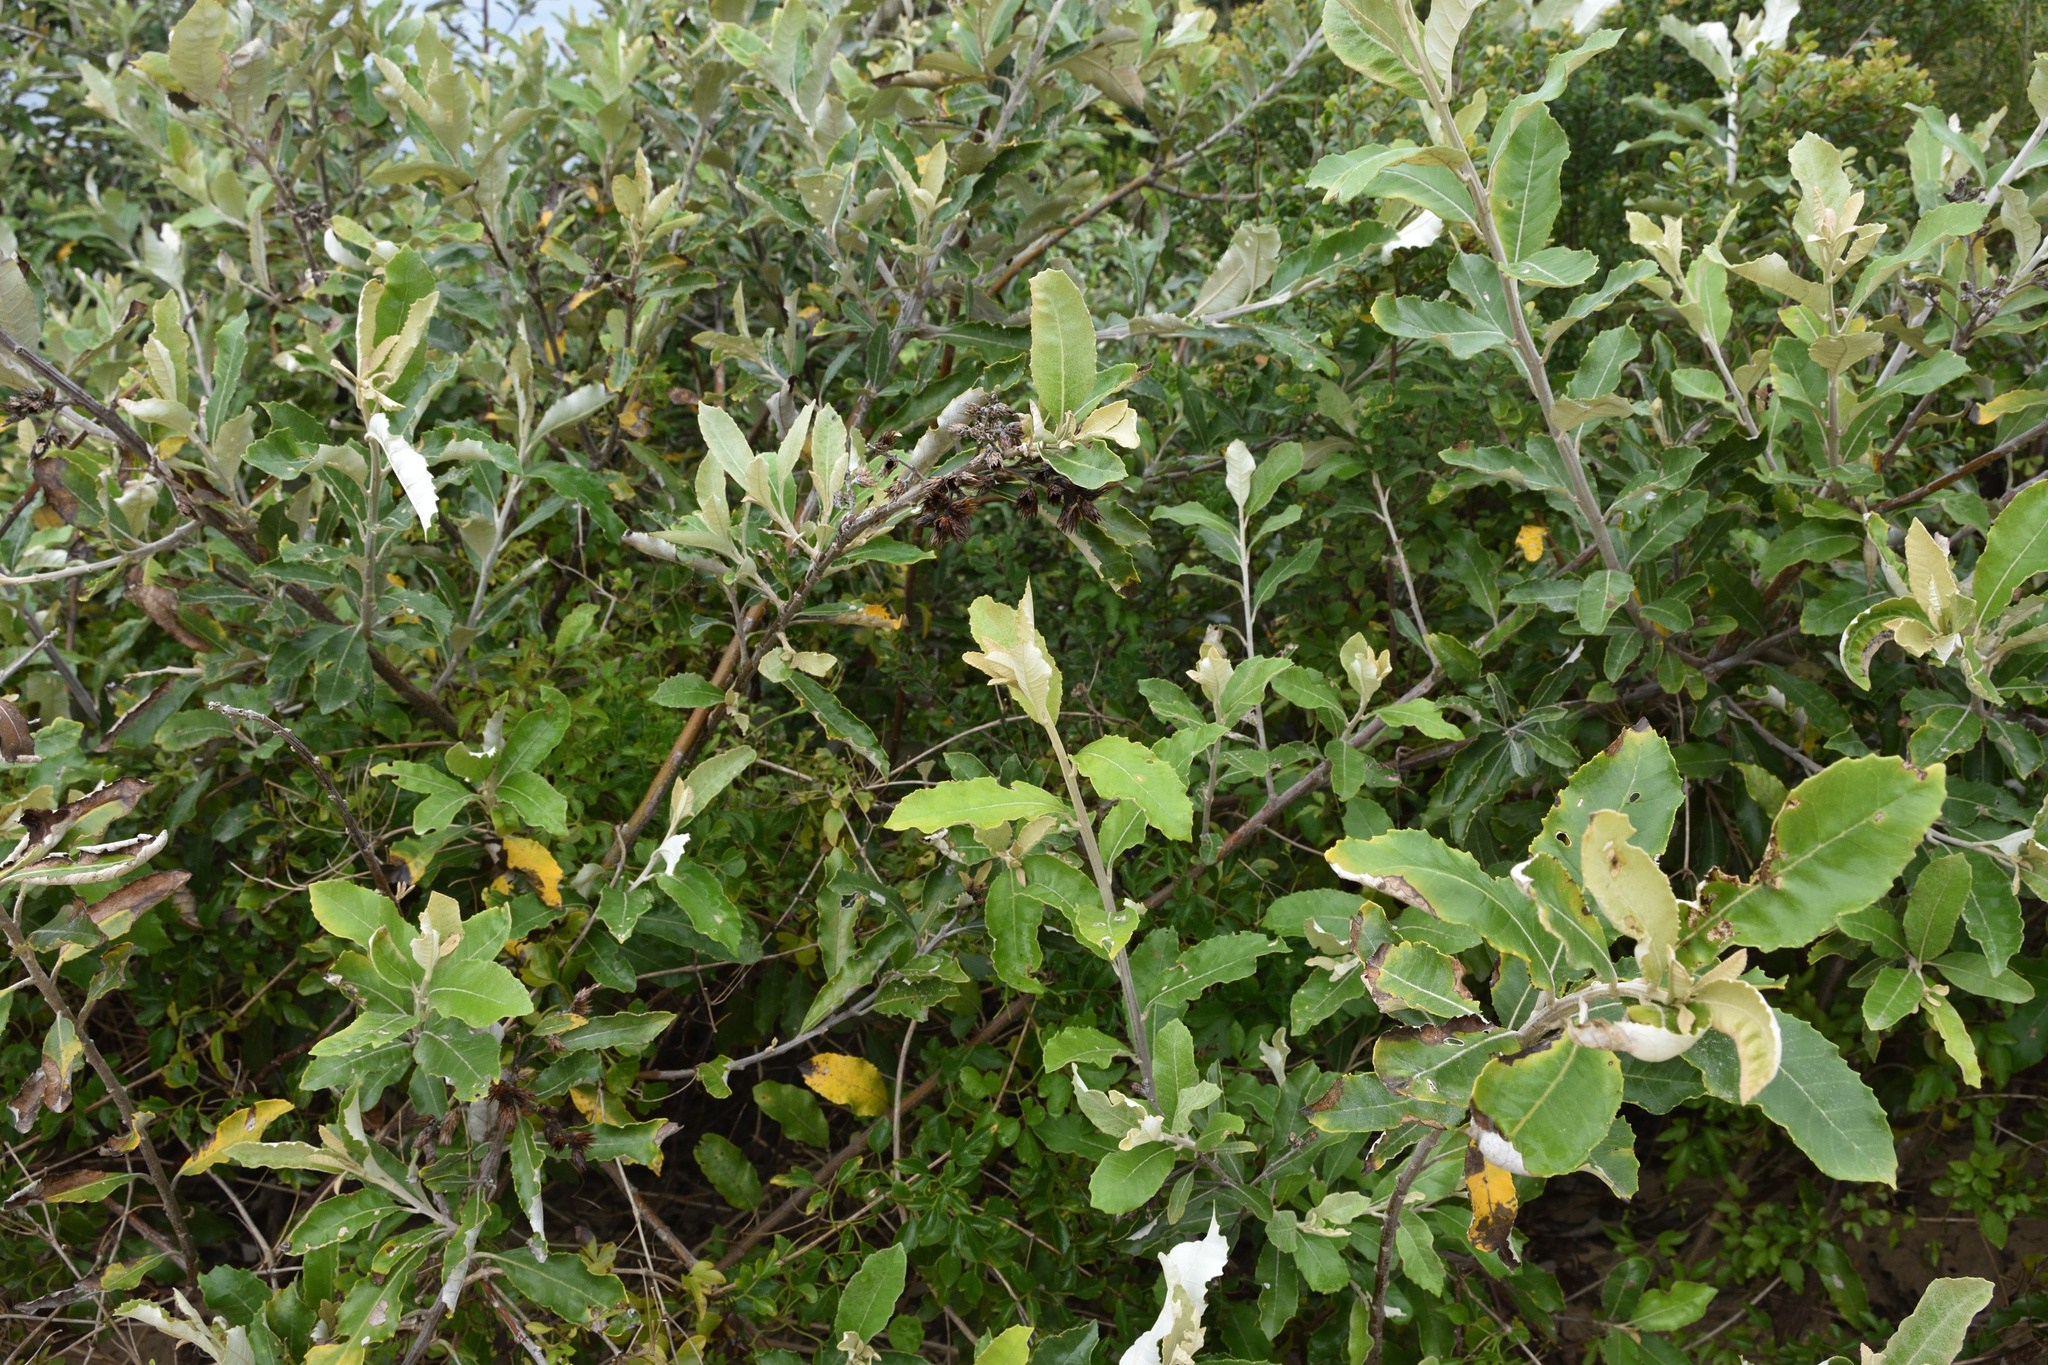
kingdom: Plantae
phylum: Tracheophyta
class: Magnoliopsida
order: Asterales
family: Asteraceae
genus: Brachylaena
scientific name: Brachylaena discolor
